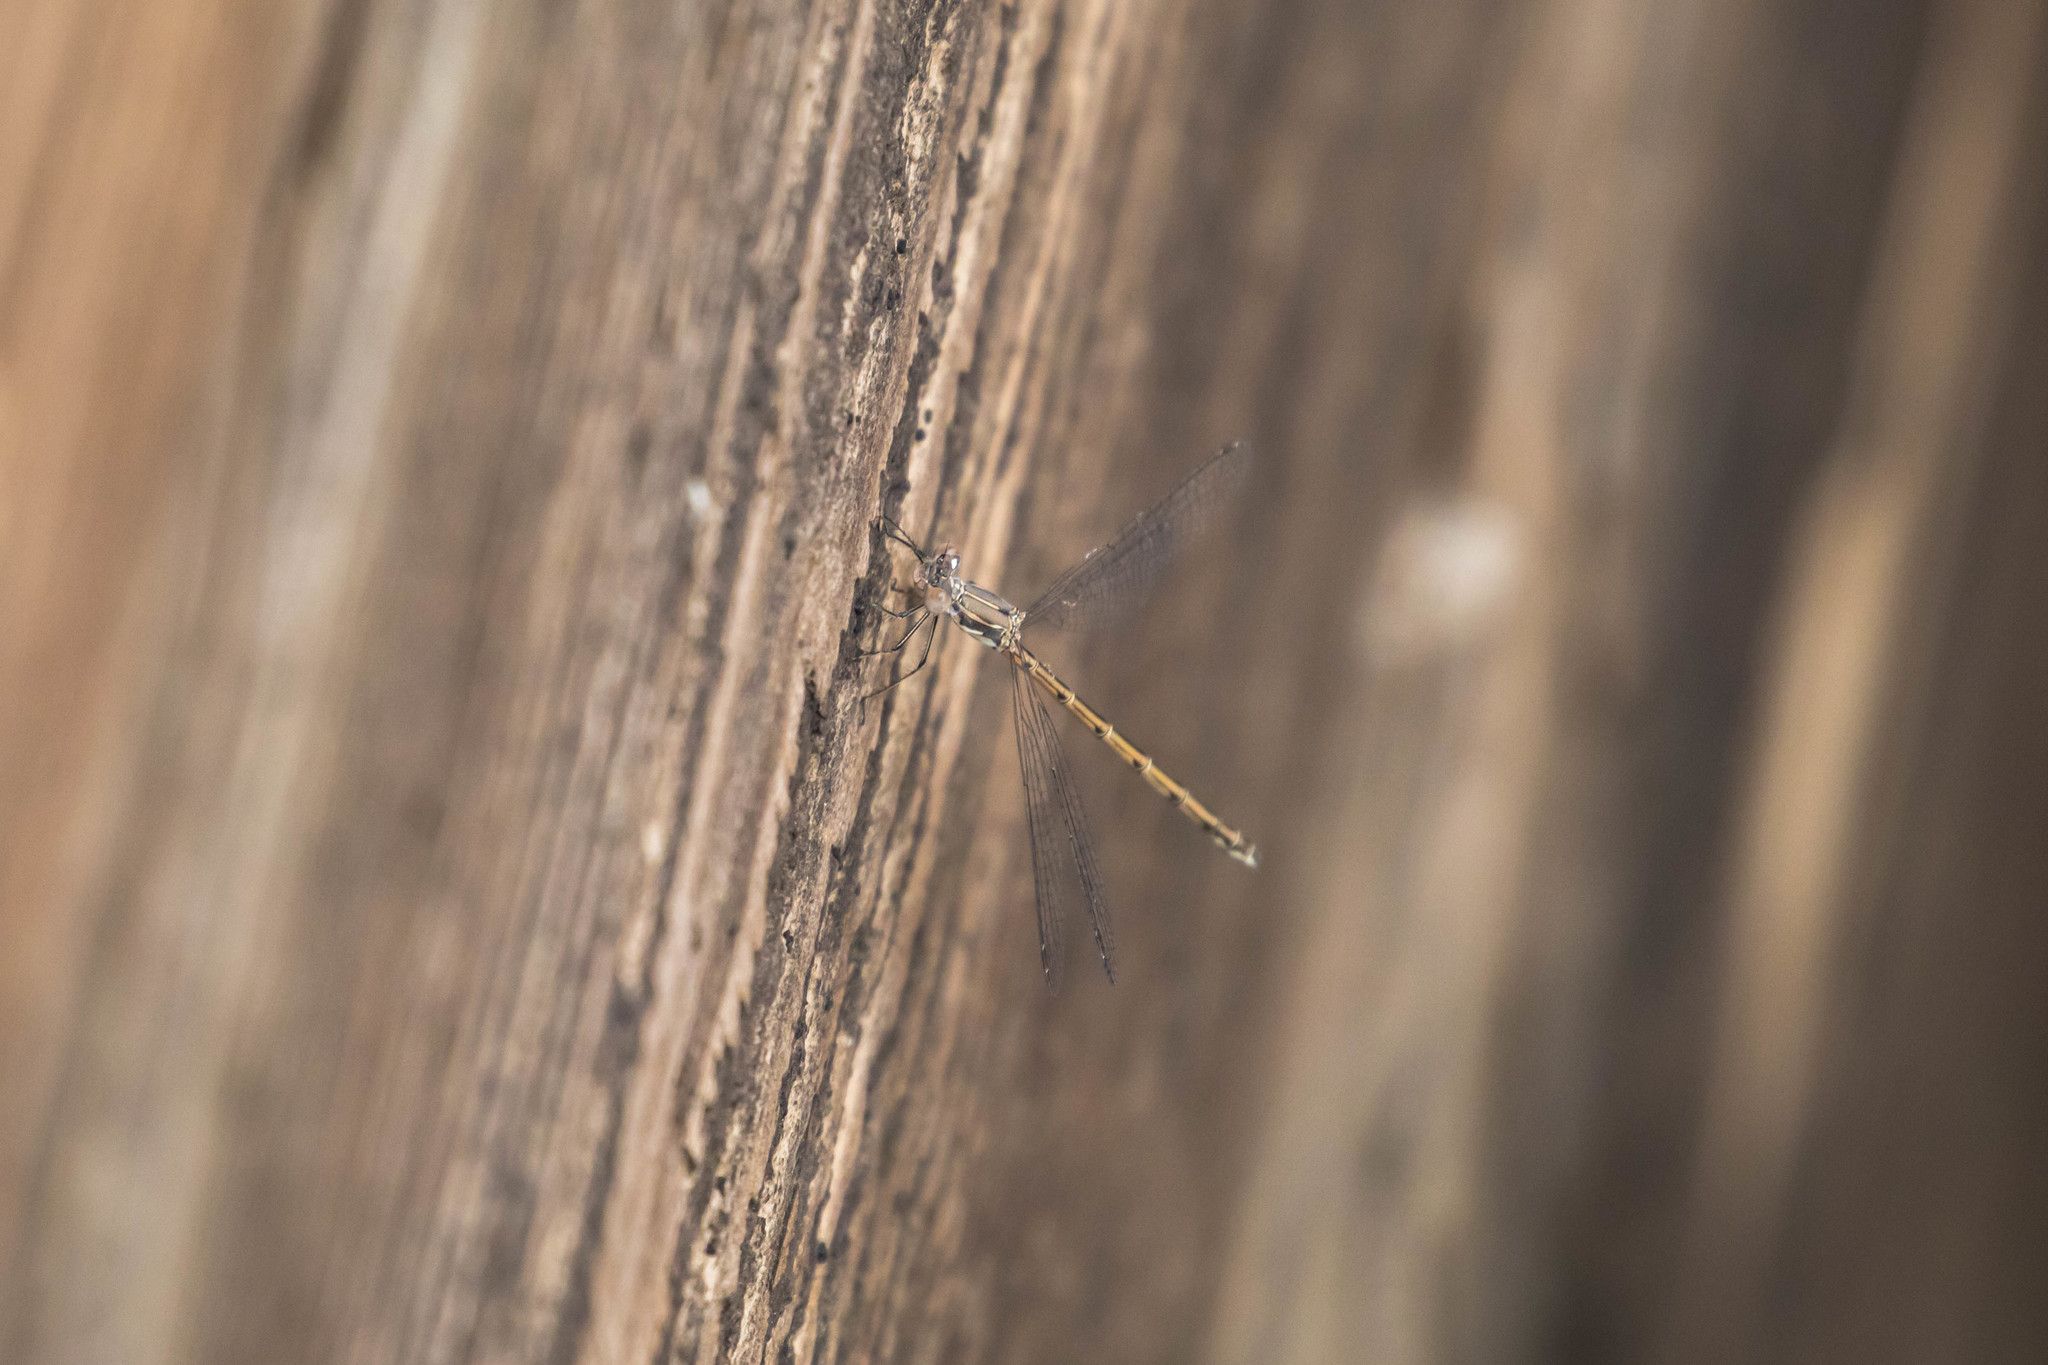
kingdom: Animalia
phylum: Arthropoda
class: Insecta
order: Odonata
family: Lestidae
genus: Lestes
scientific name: Lestes congener
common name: Spotted spreadwing
